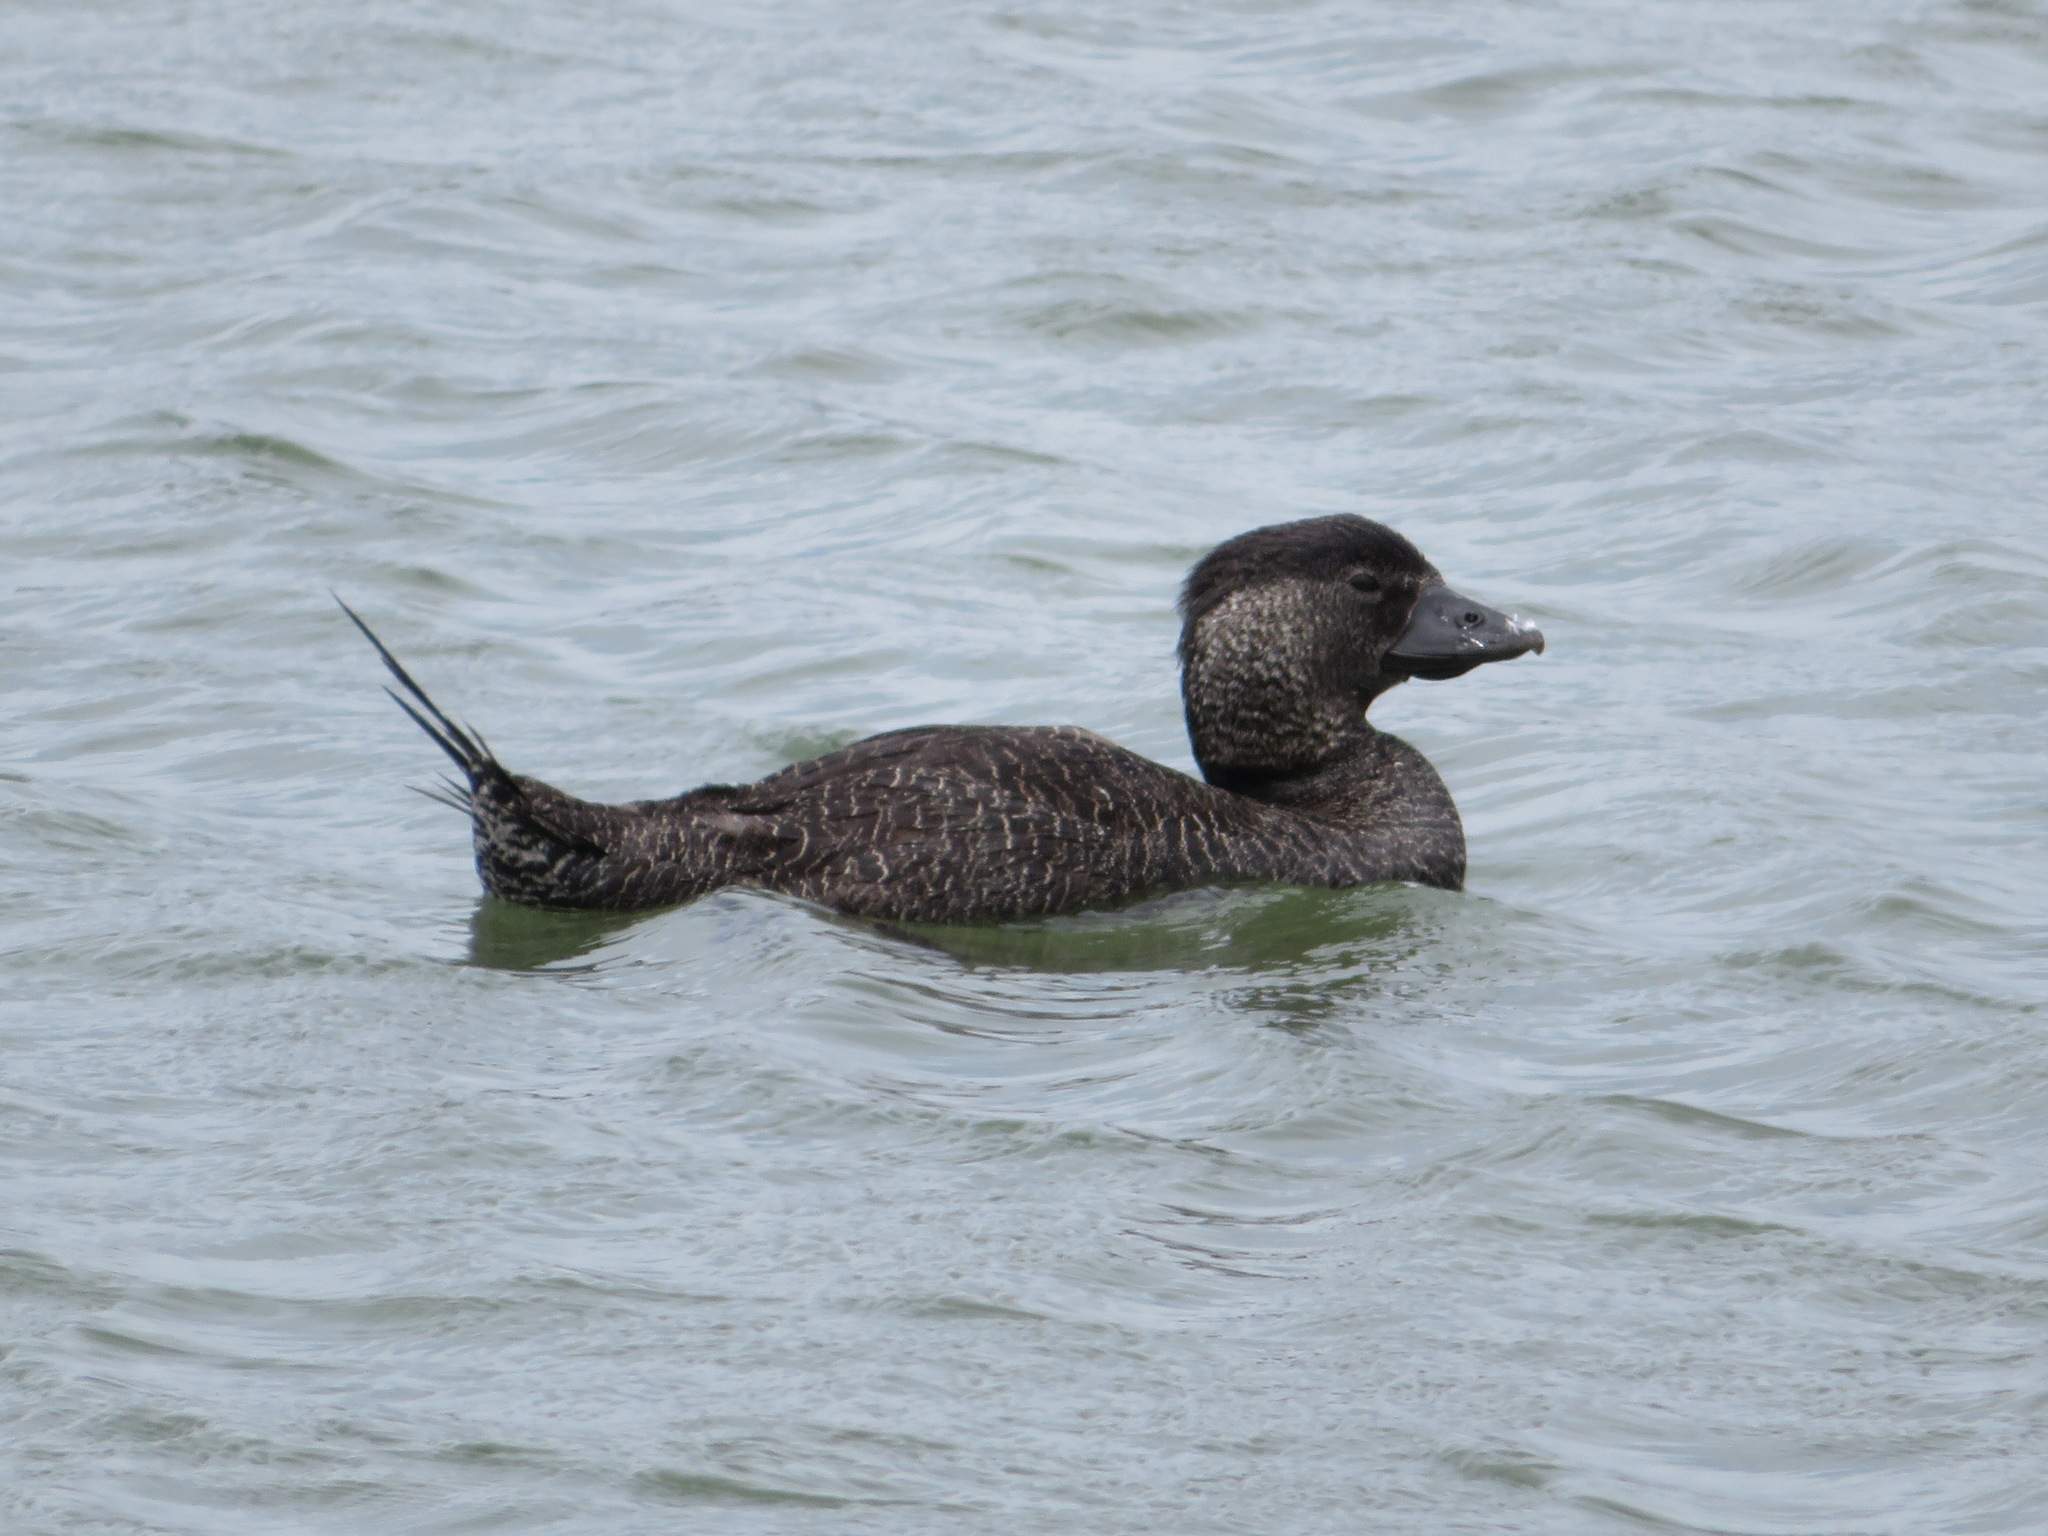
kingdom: Animalia
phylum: Chordata
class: Aves
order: Anseriformes
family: Anatidae
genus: Biziura
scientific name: Biziura lobata
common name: Musk duck
